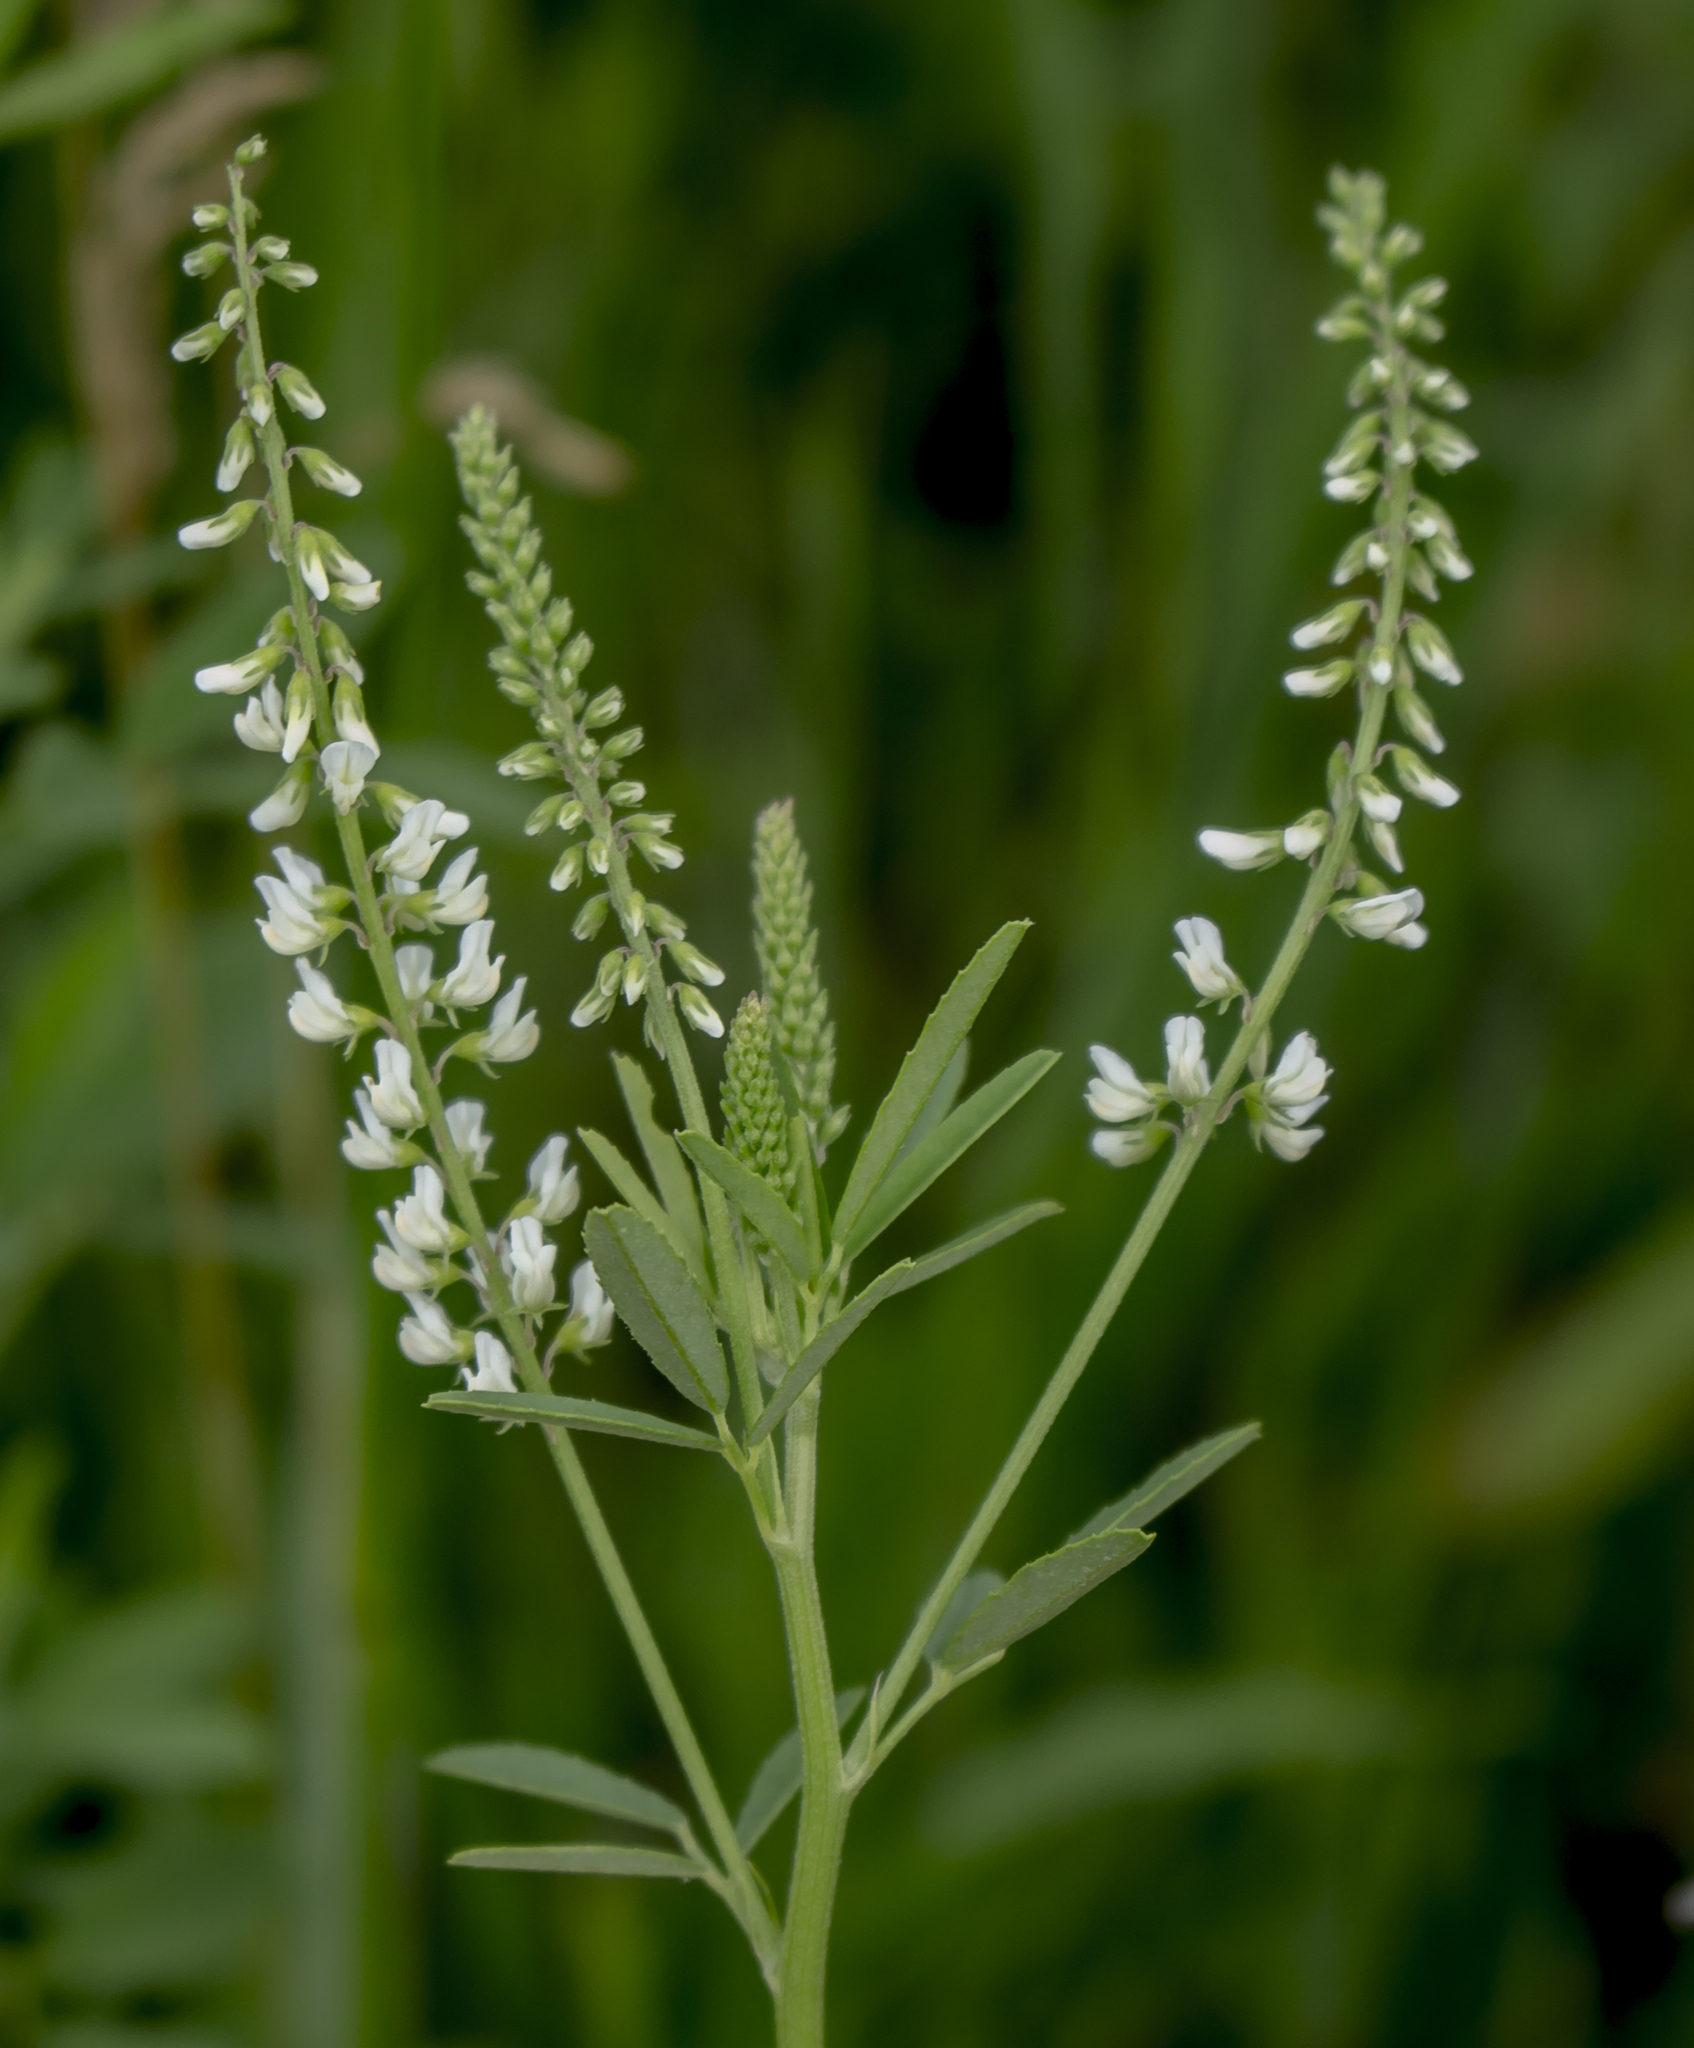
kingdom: Plantae
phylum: Tracheophyta
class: Magnoliopsida
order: Fabales
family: Fabaceae
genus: Melilotus
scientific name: Melilotus albus
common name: White melilot
